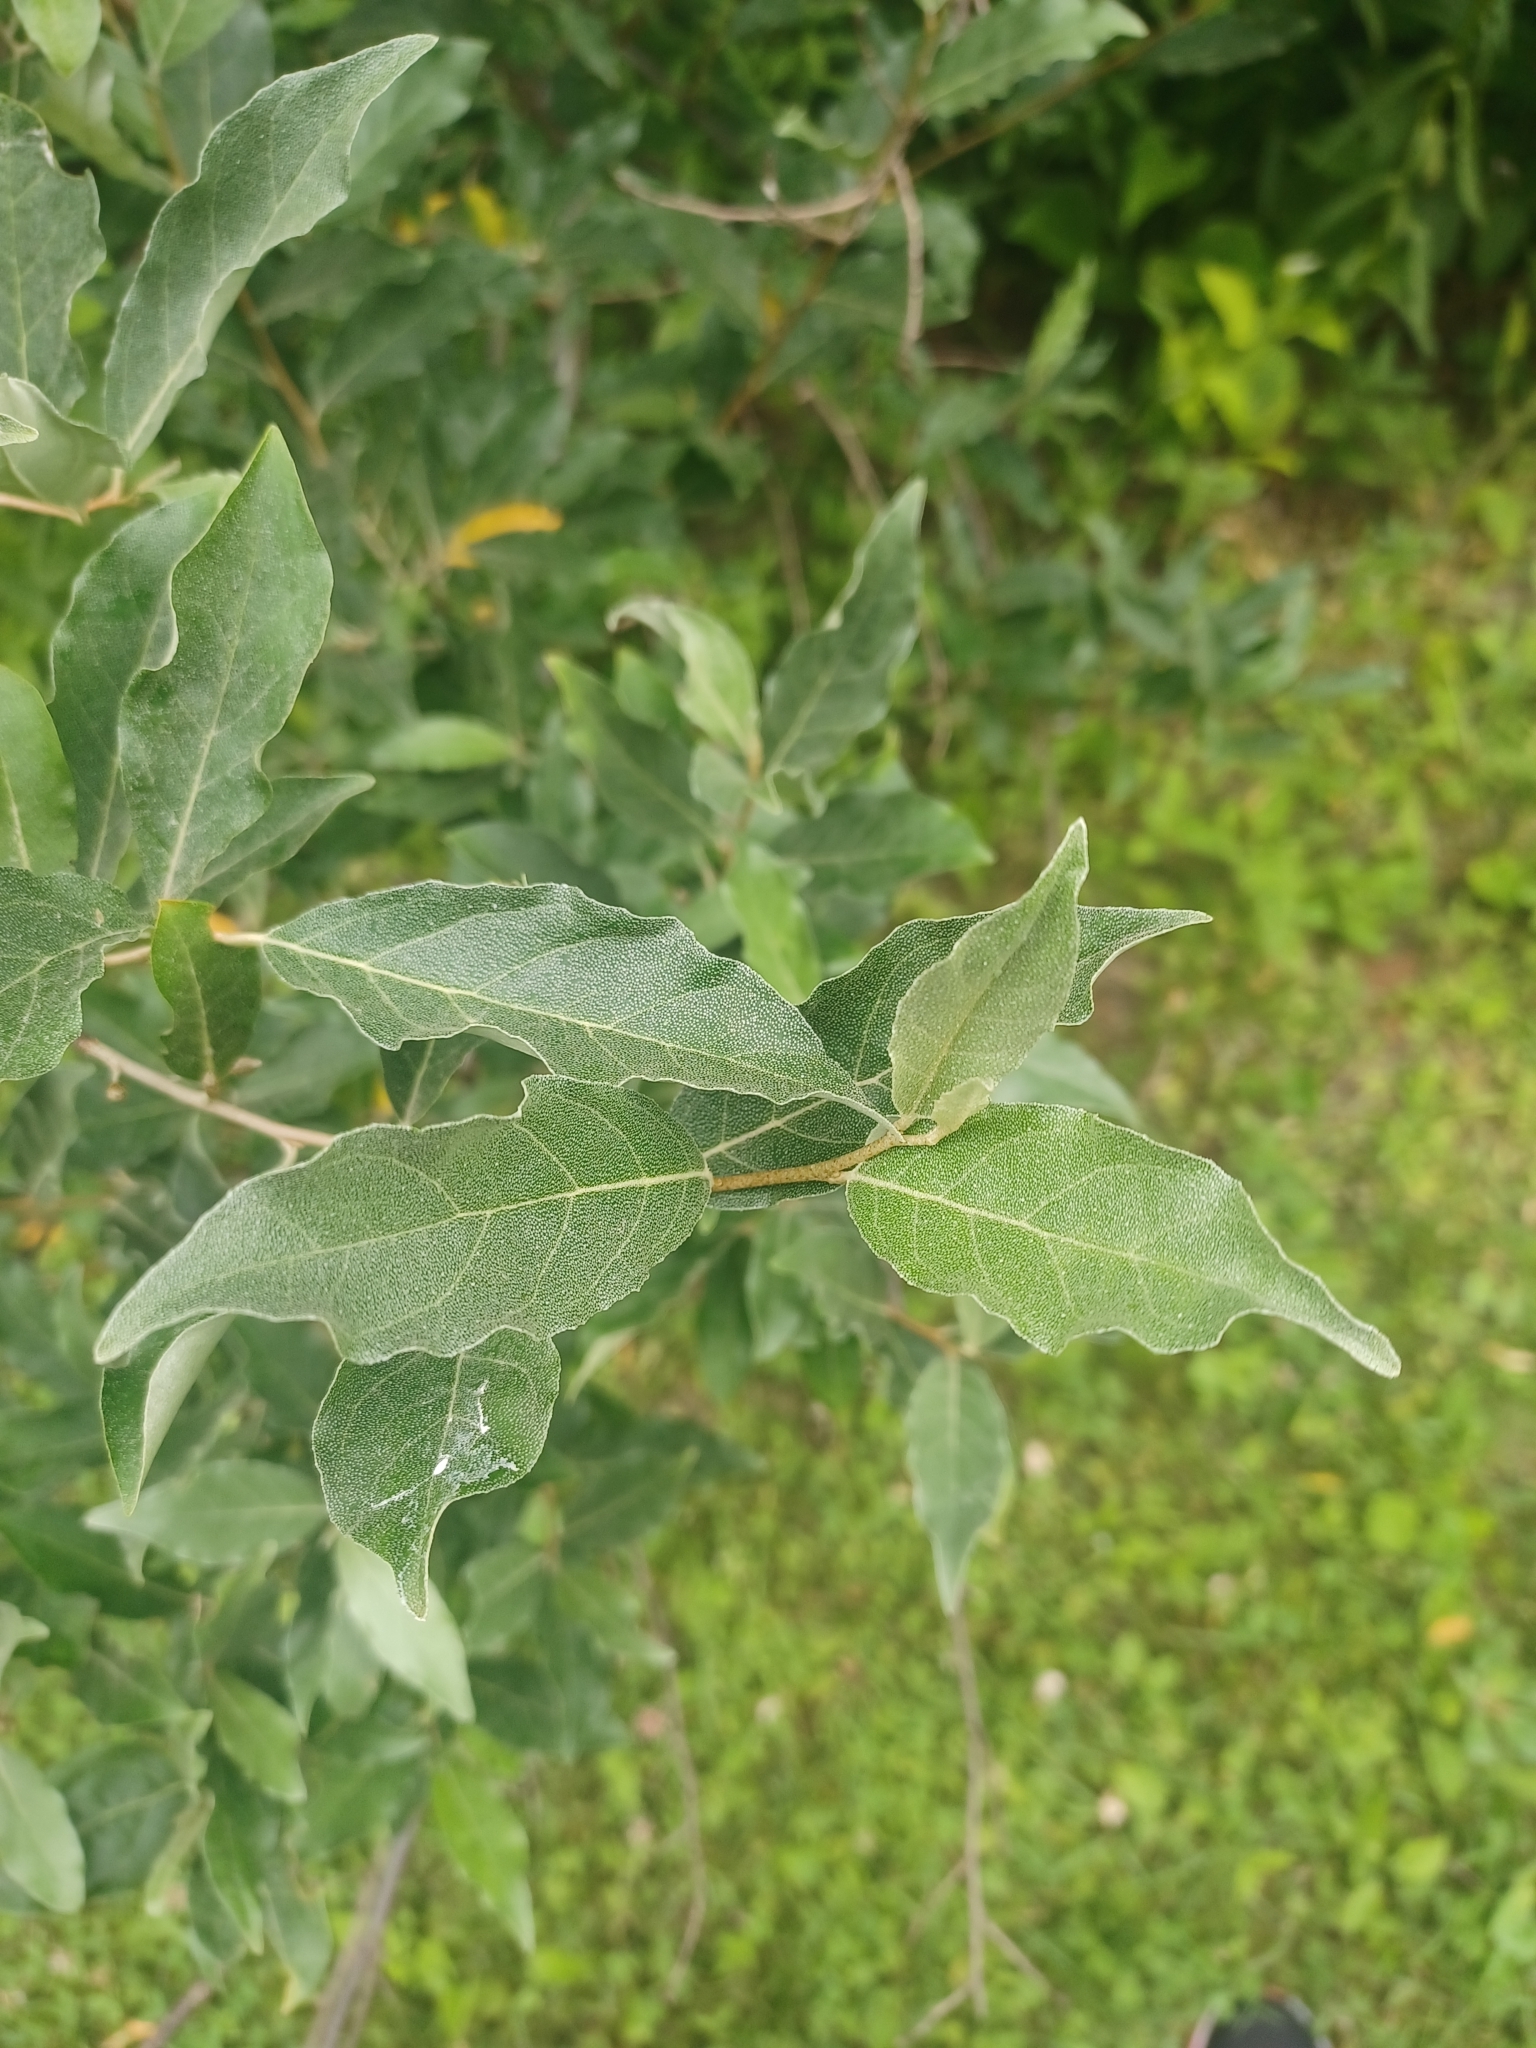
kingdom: Plantae
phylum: Tracheophyta
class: Magnoliopsida
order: Rosales
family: Elaeagnaceae
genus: Elaeagnus
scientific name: Elaeagnus umbellata
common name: Autumn olive
